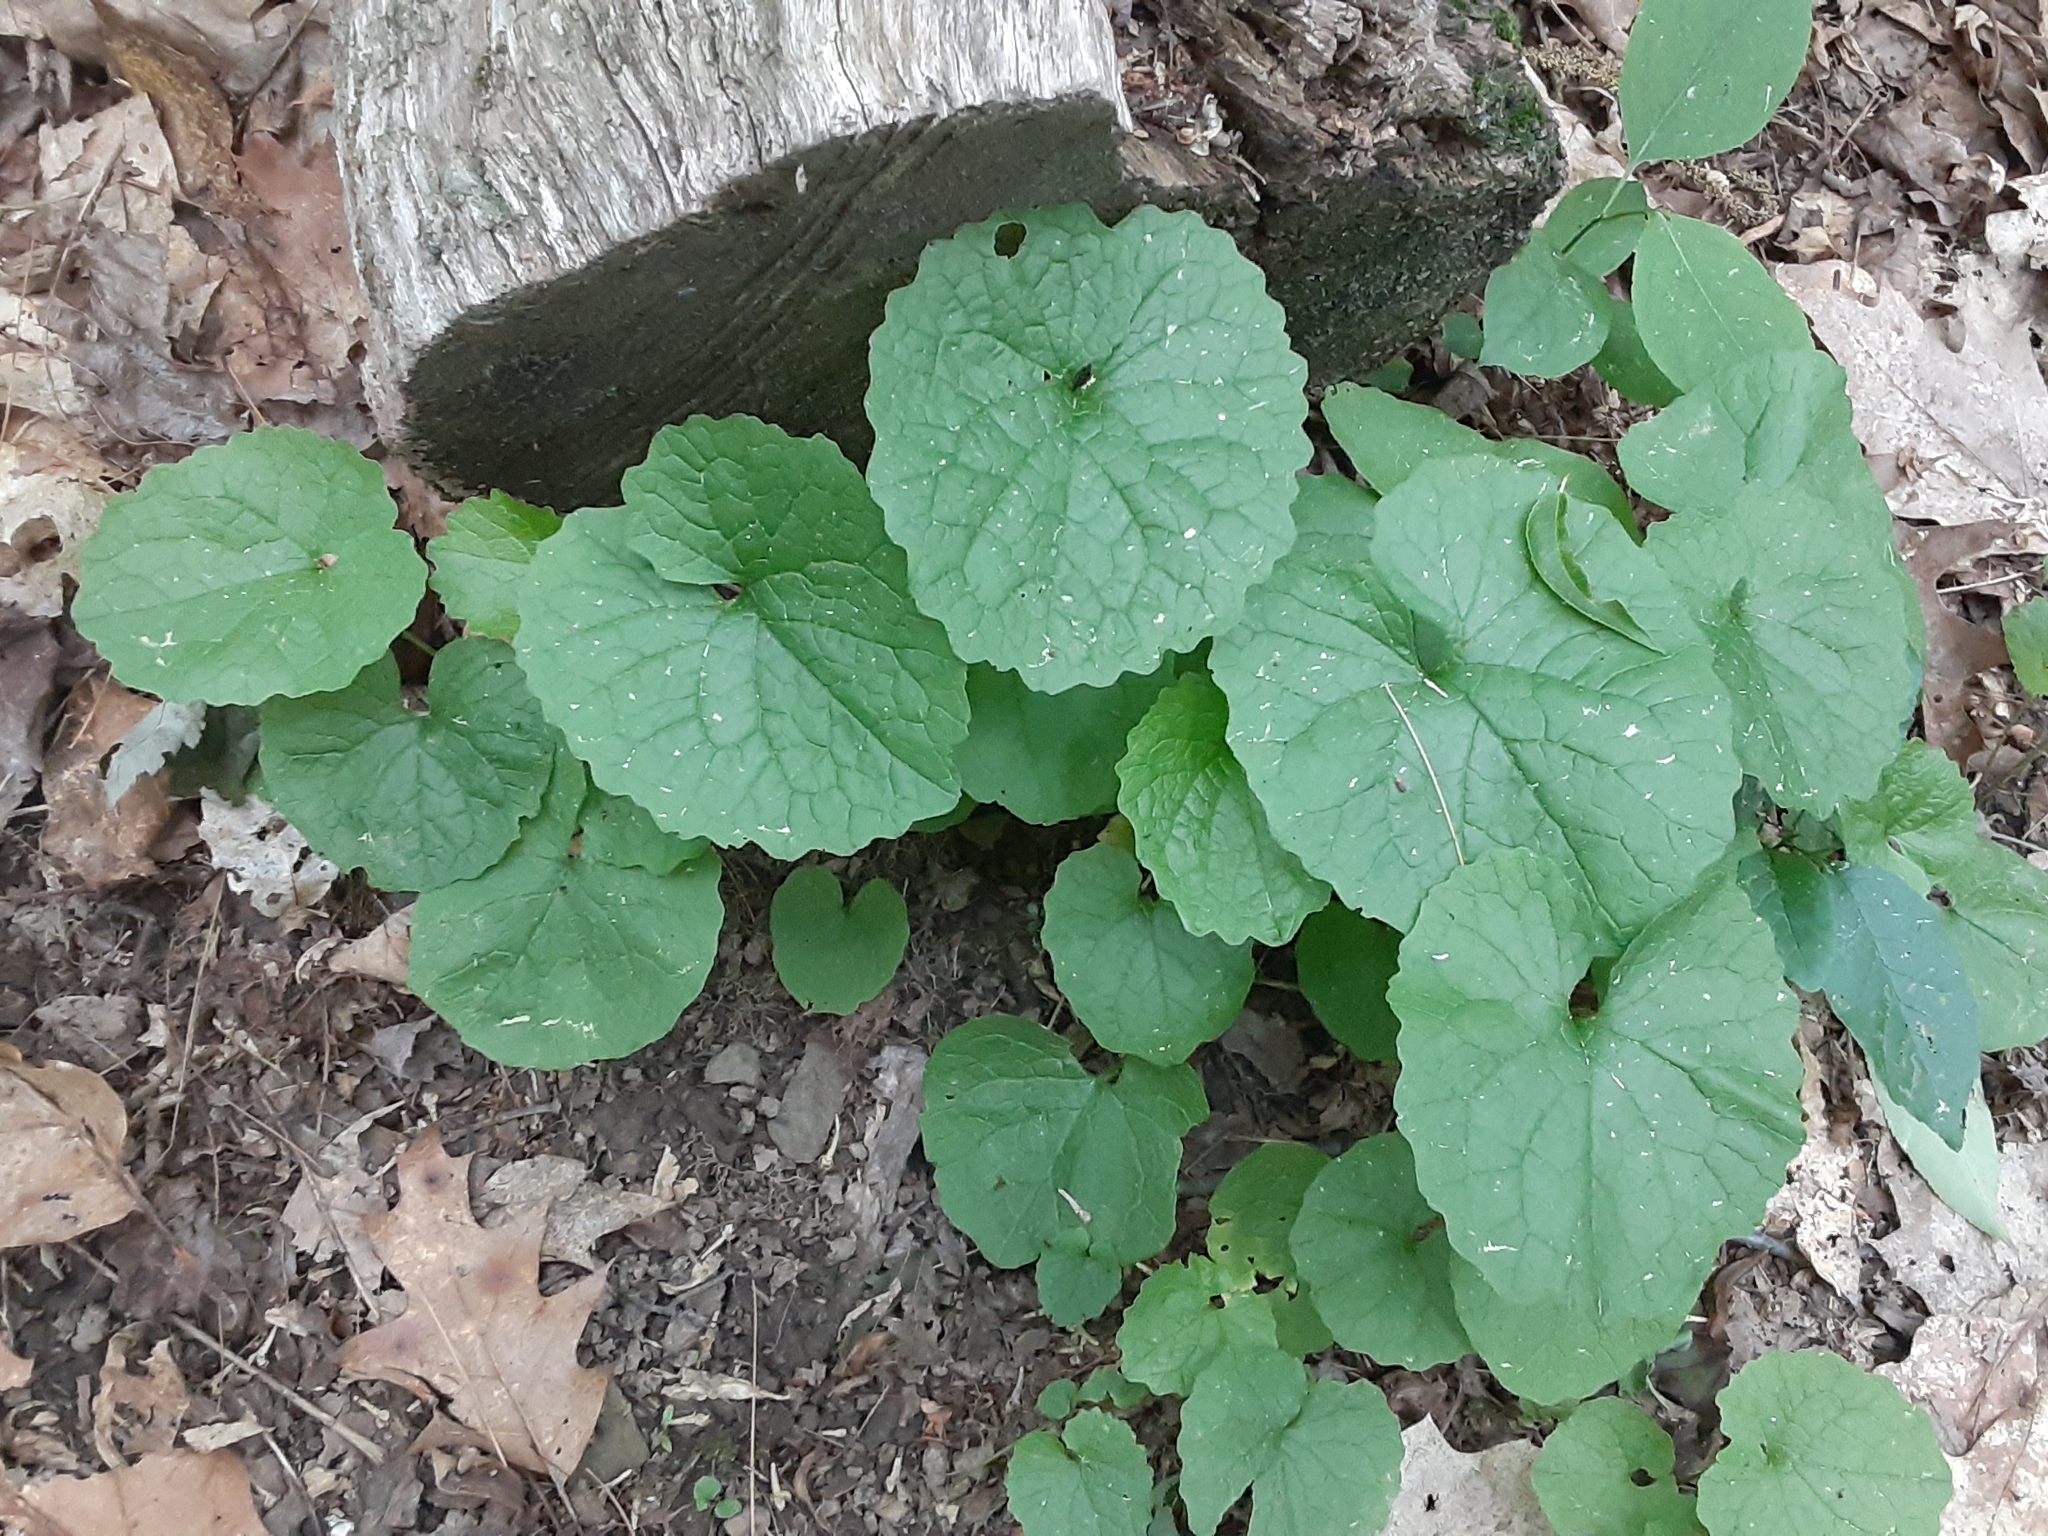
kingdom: Plantae
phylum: Tracheophyta
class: Magnoliopsida
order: Brassicales
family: Brassicaceae
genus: Alliaria
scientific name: Alliaria petiolata
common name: Garlic mustard
